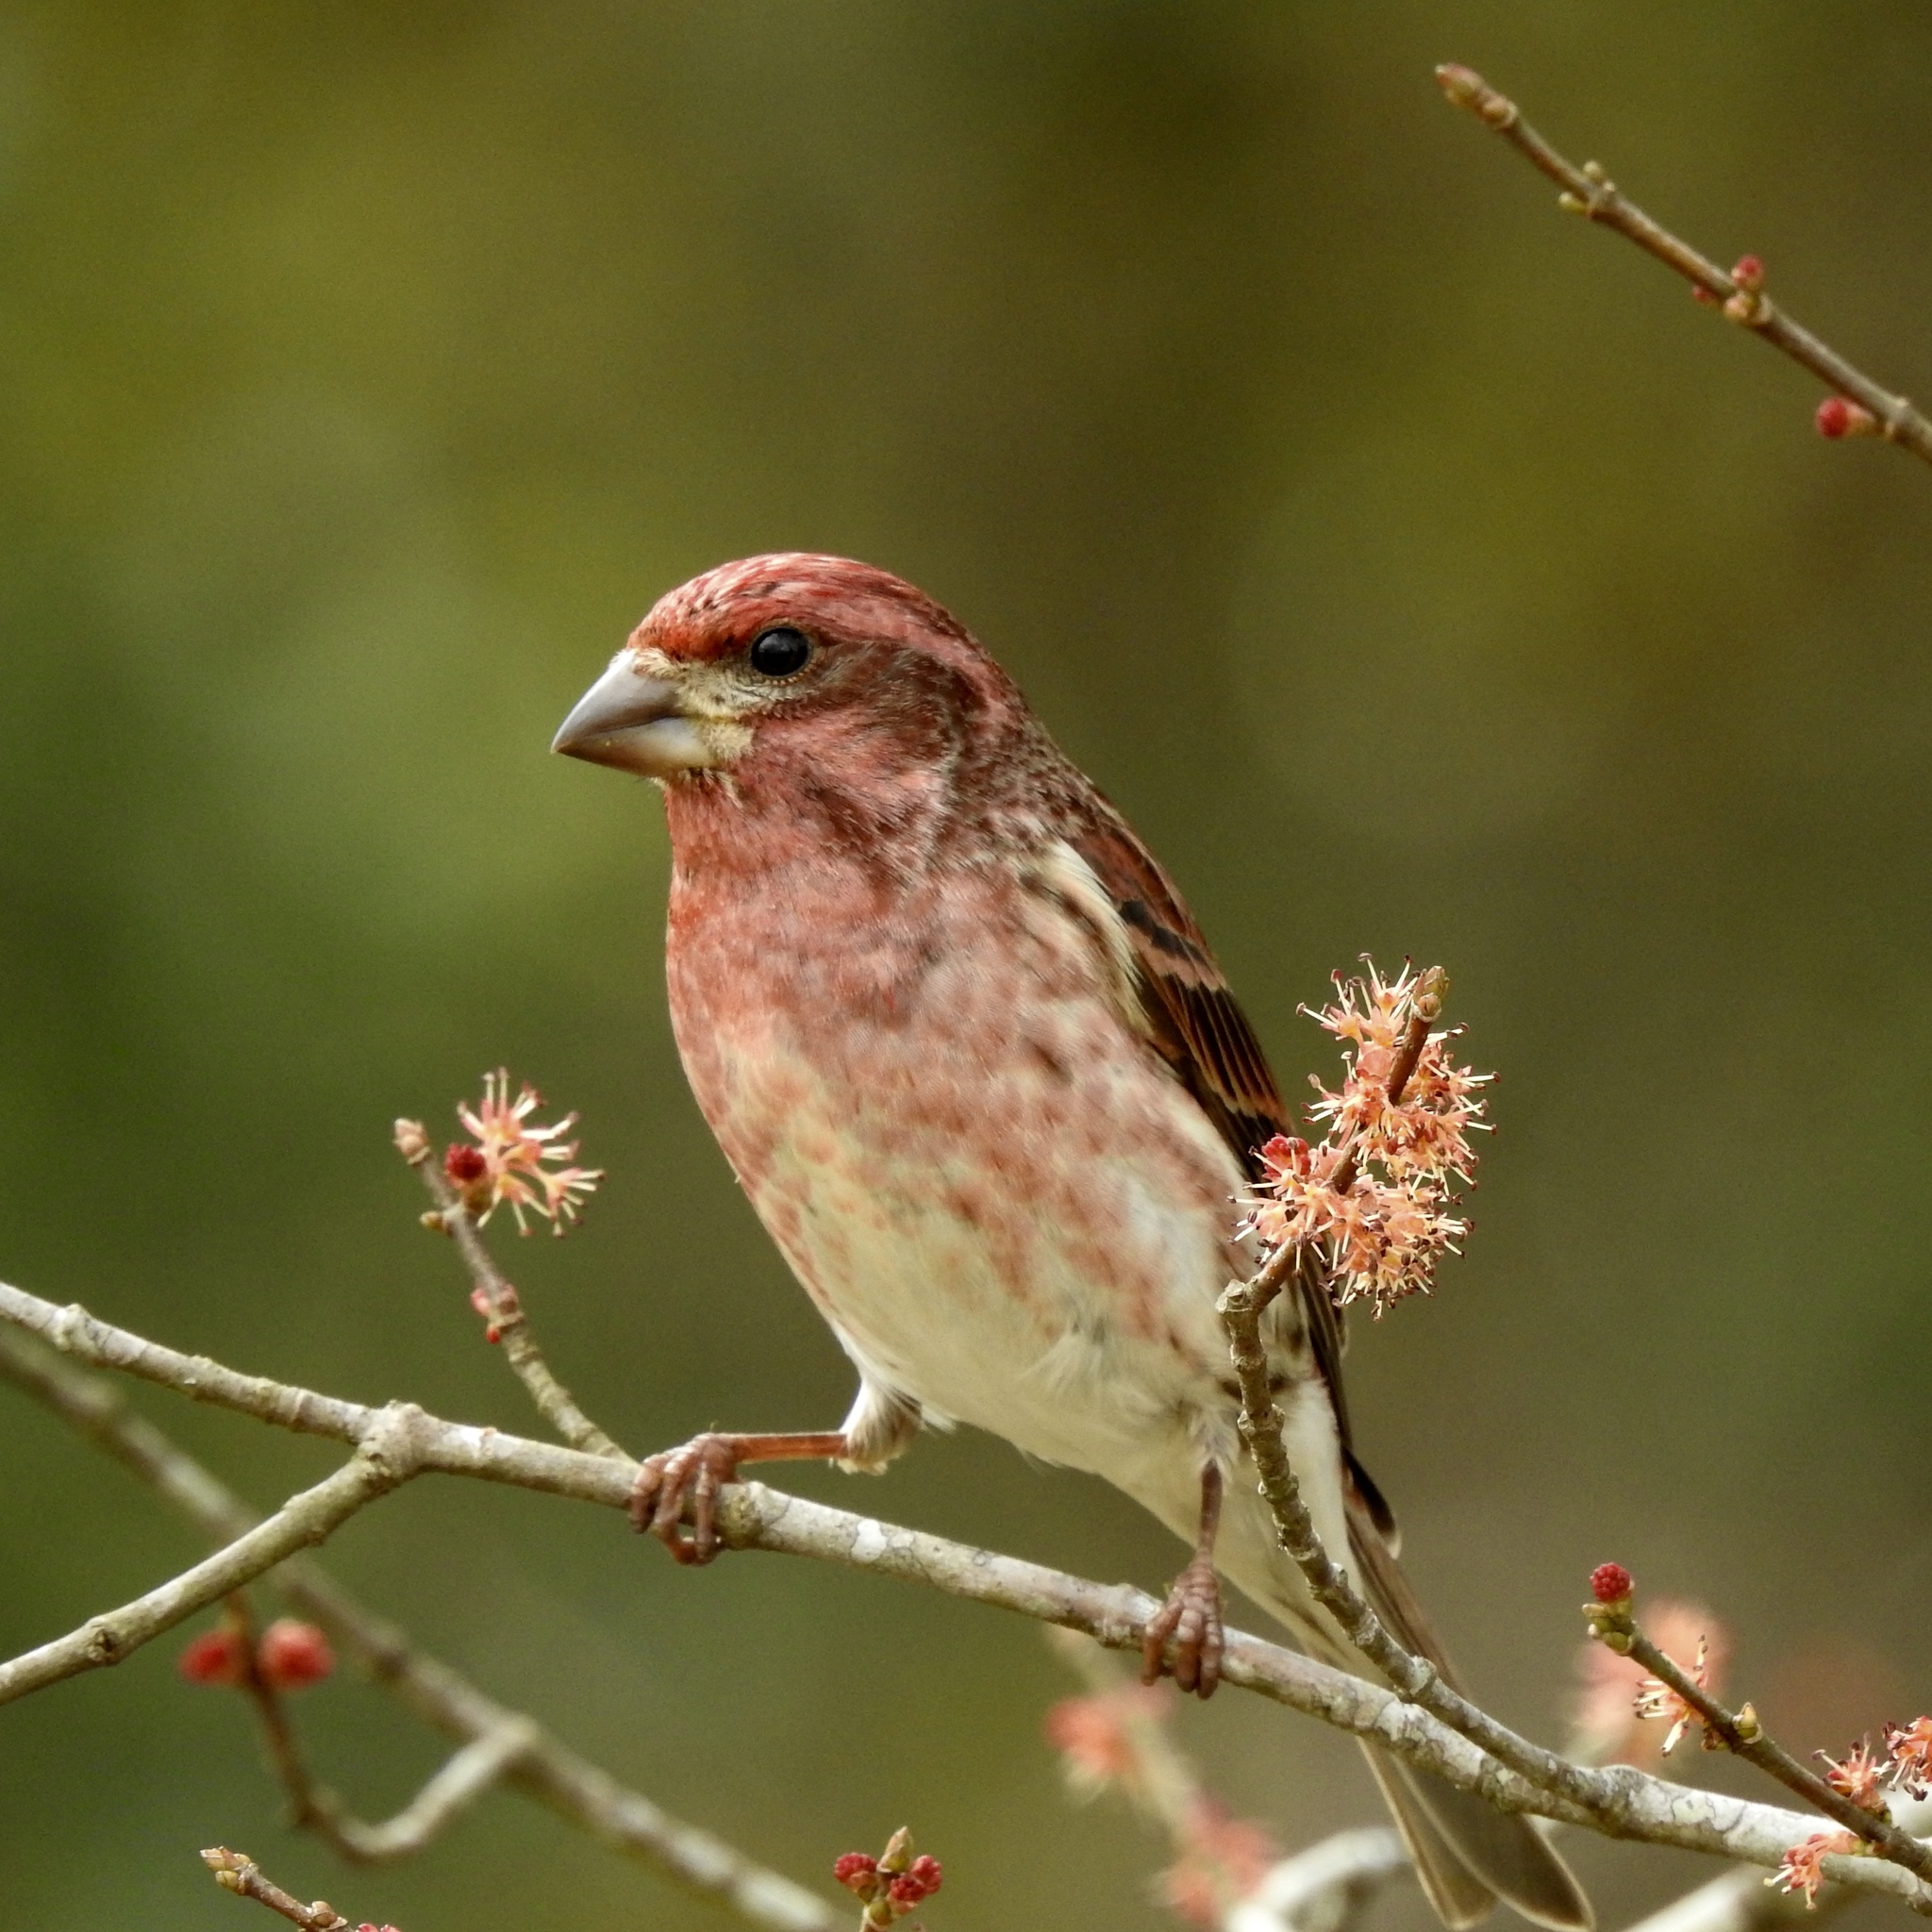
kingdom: Animalia
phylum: Chordata
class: Aves
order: Passeriformes
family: Fringillidae
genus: Haemorhous
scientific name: Haemorhous purpureus
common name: Purple finch
